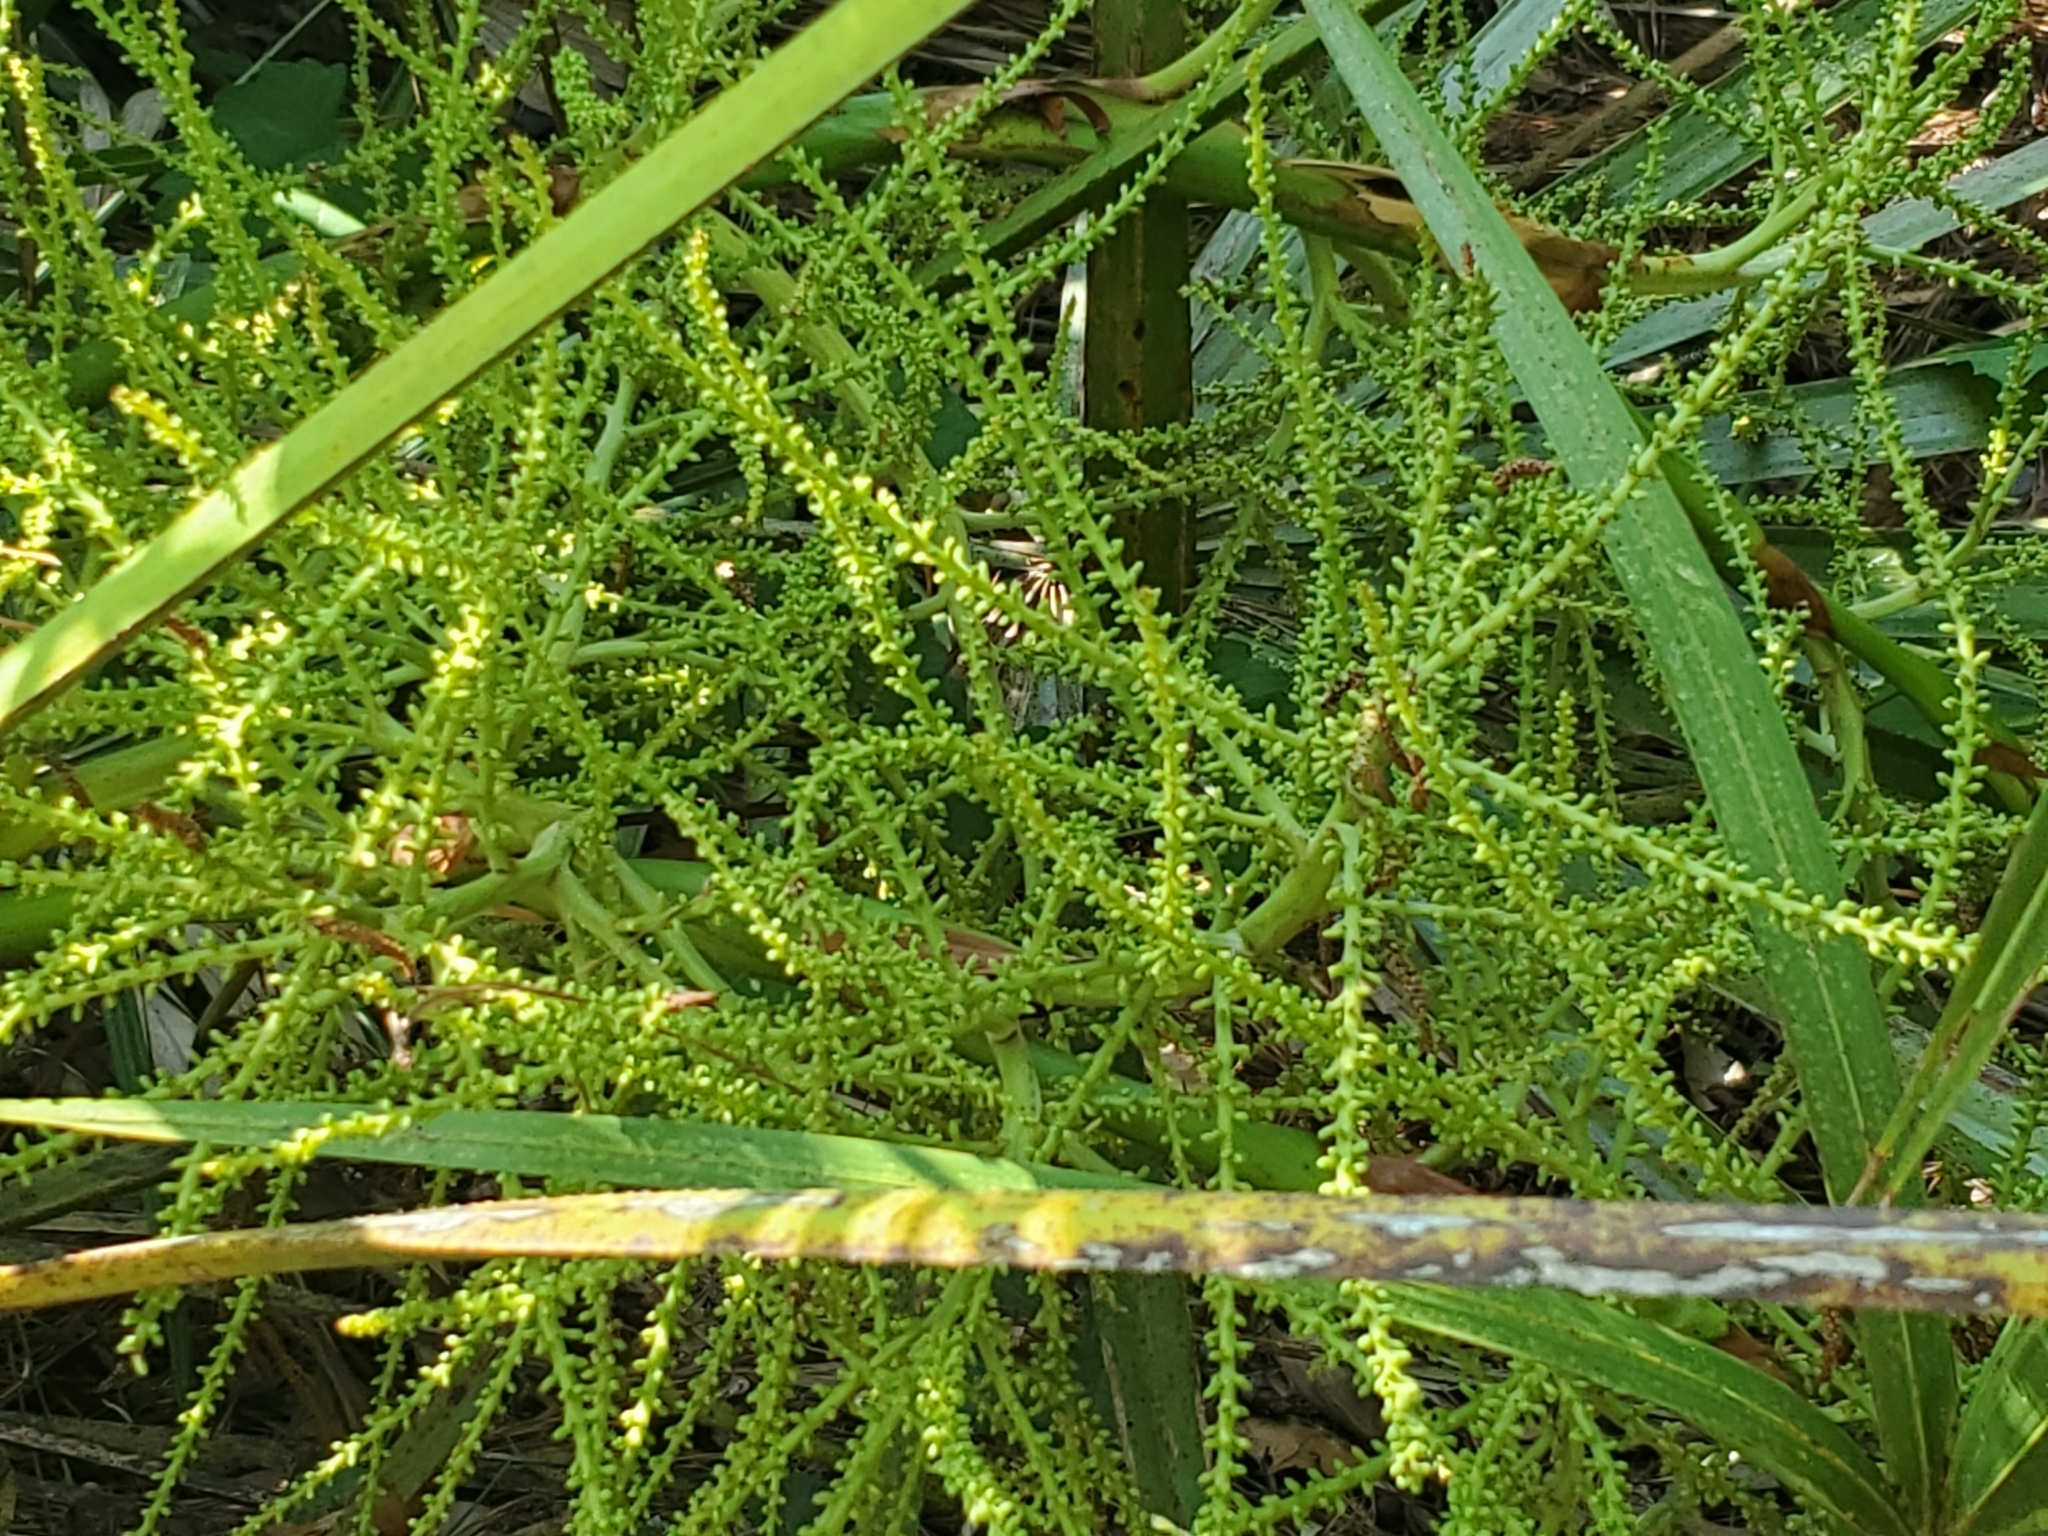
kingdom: Plantae
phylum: Tracheophyta
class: Liliopsida
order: Arecales
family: Arecaceae
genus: Serenoa
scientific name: Serenoa repens
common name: Saw-palmetto
